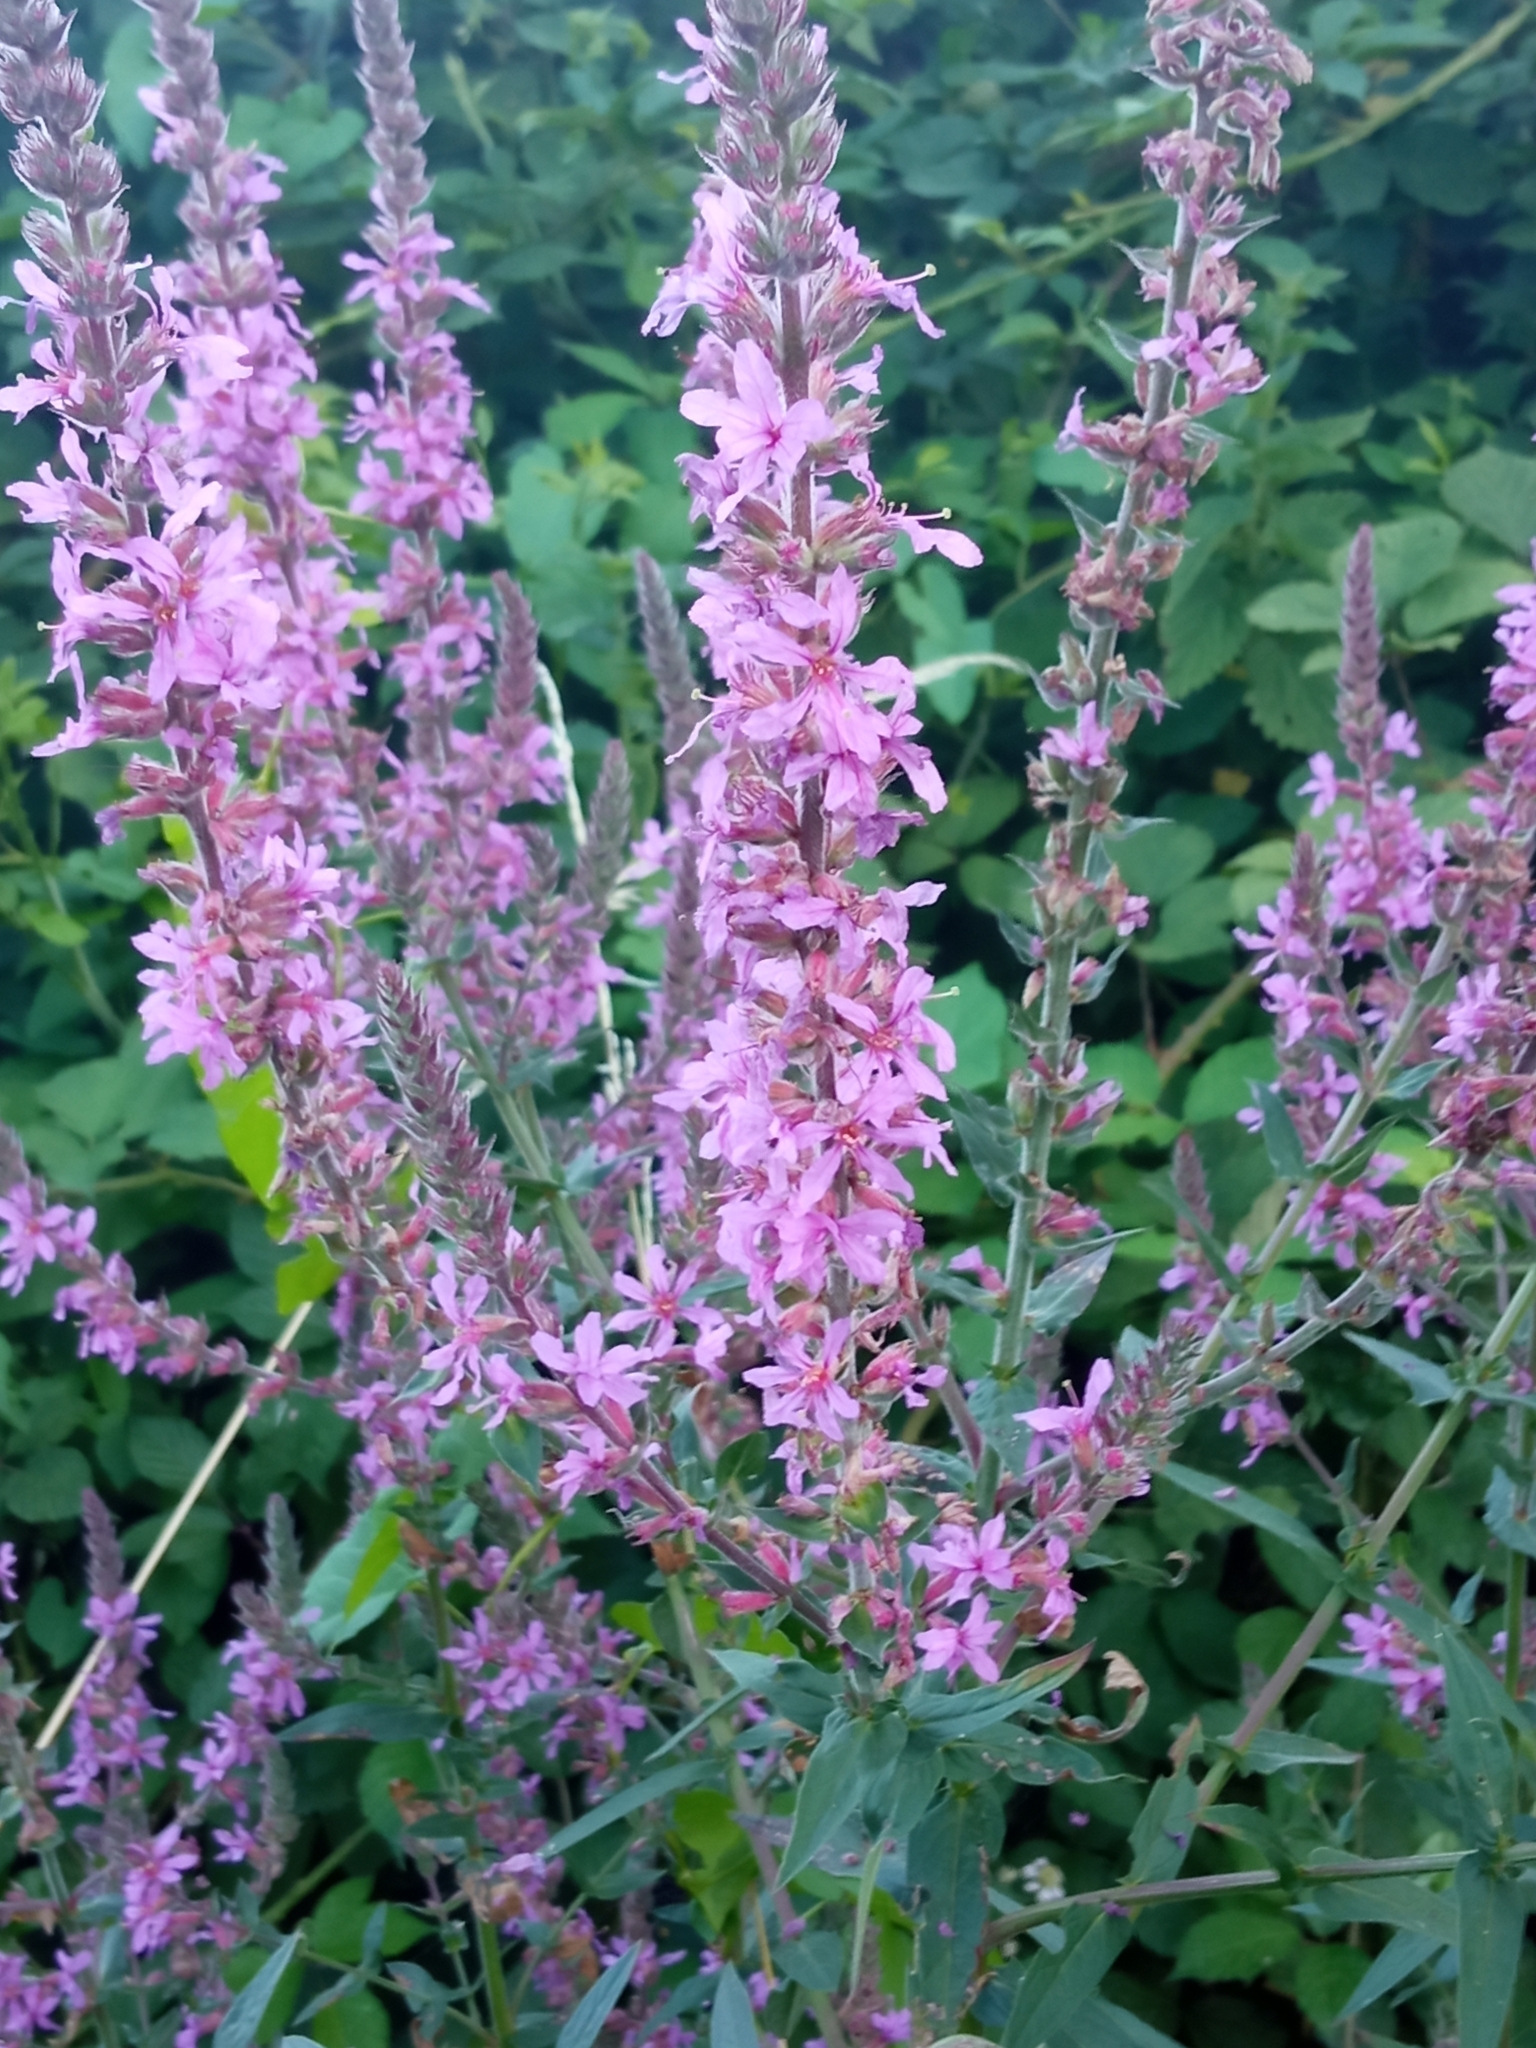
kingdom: Plantae
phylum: Tracheophyta
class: Magnoliopsida
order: Myrtales
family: Lythraceae
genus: Lythrum
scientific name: Lythrum salicaria
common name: Purple loosestrife
